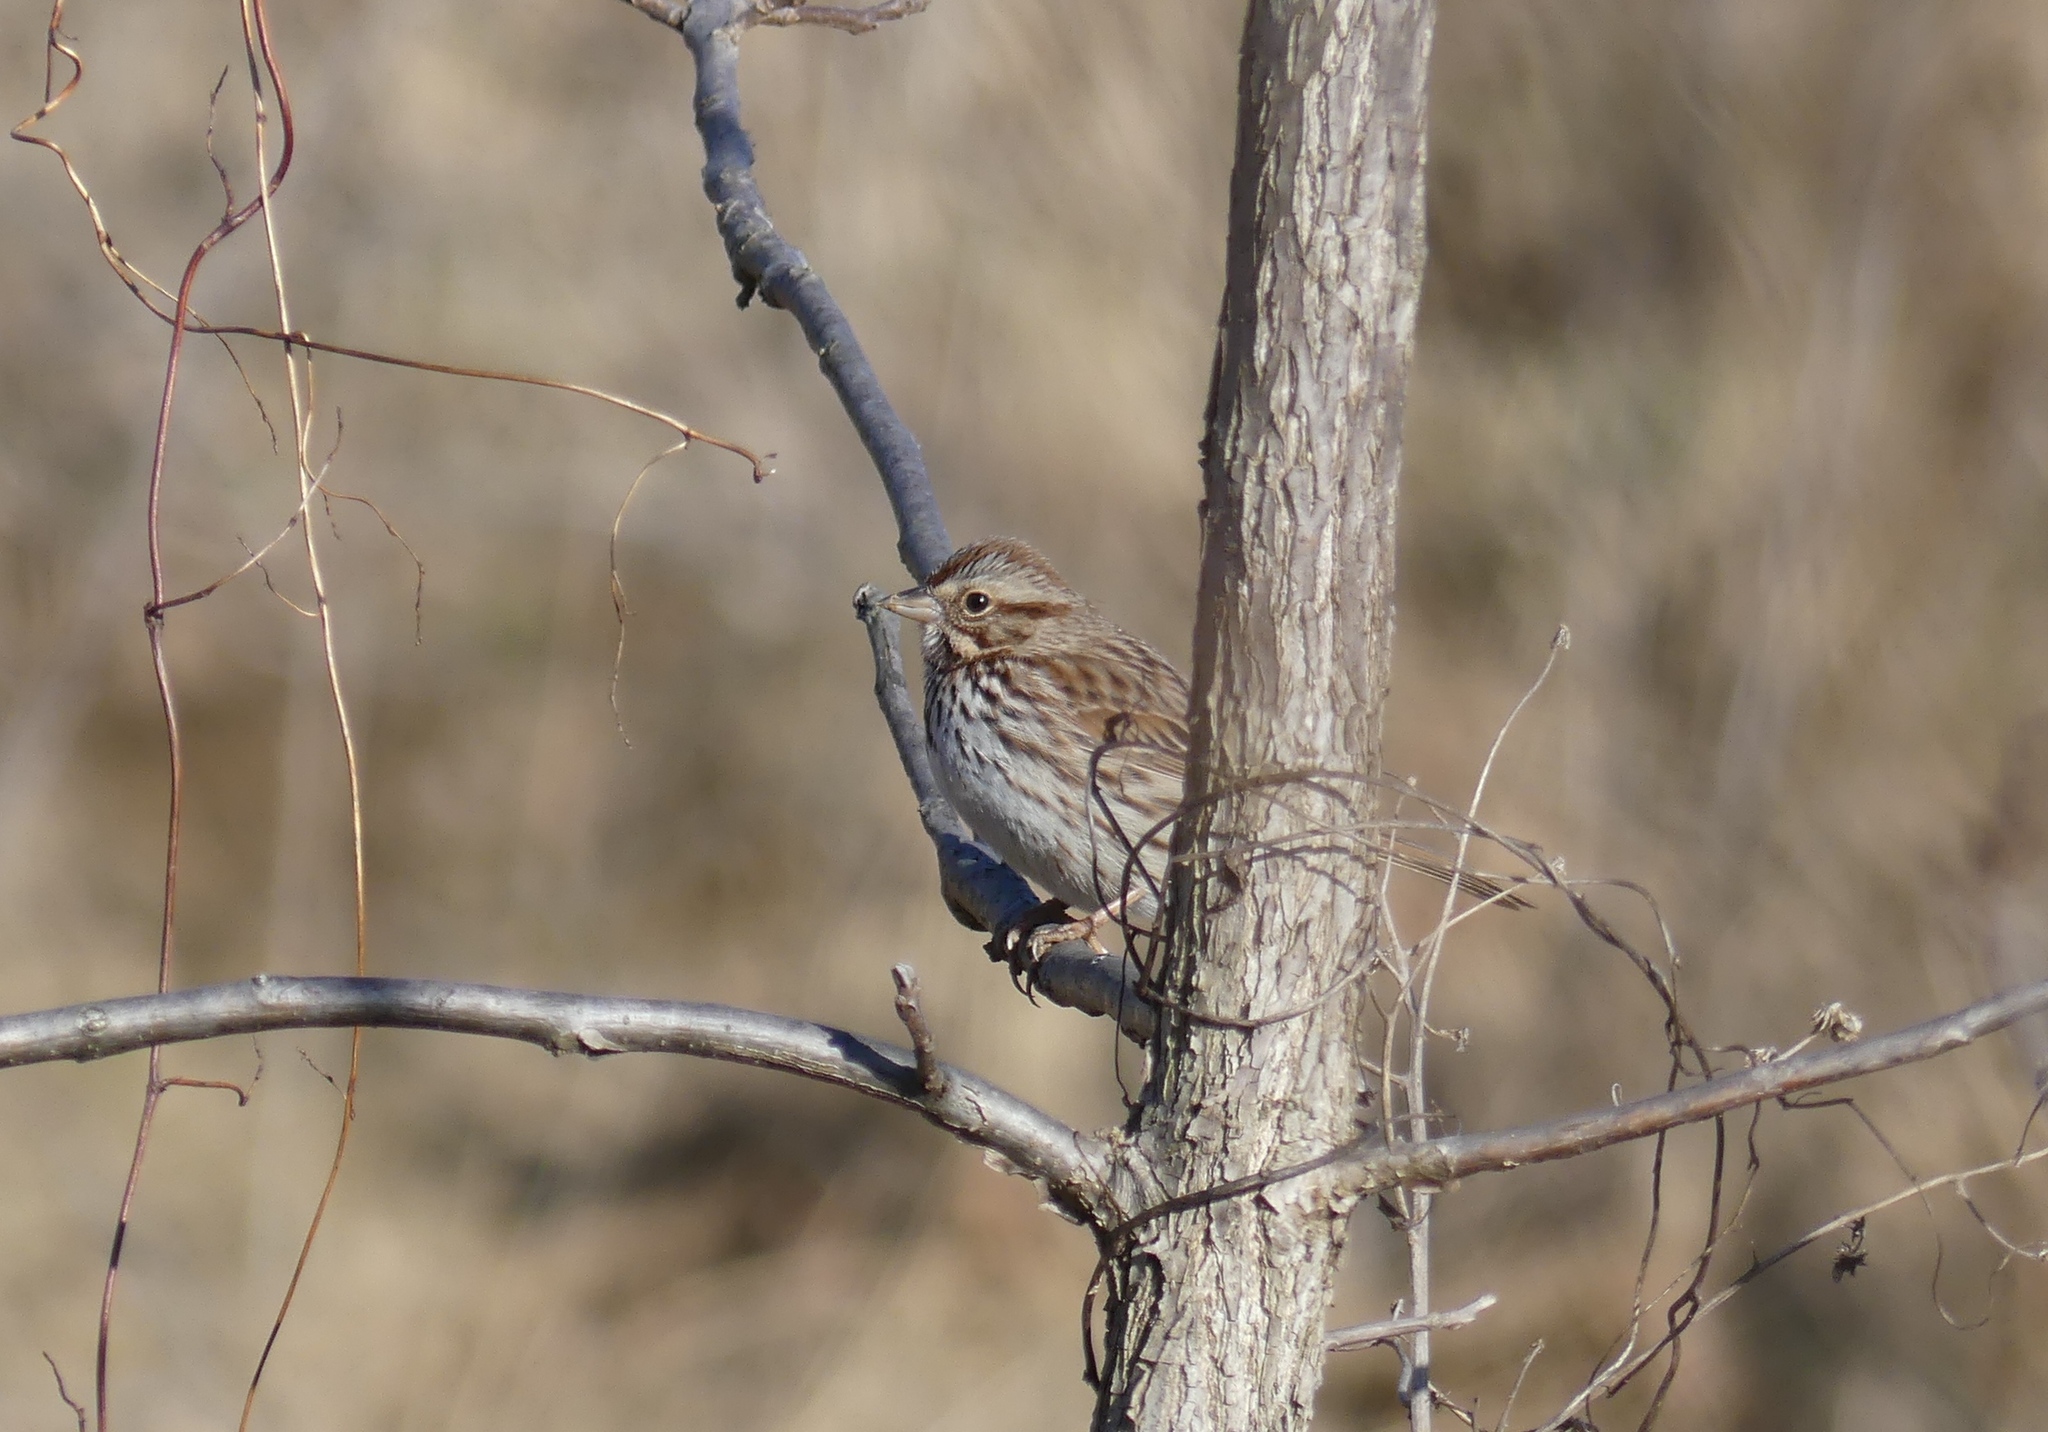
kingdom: Animalia
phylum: Chordata
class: Aves
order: Passeriformes
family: Passerellidae
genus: Melospiza
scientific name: Melospiza melodia
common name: Song sparrow
